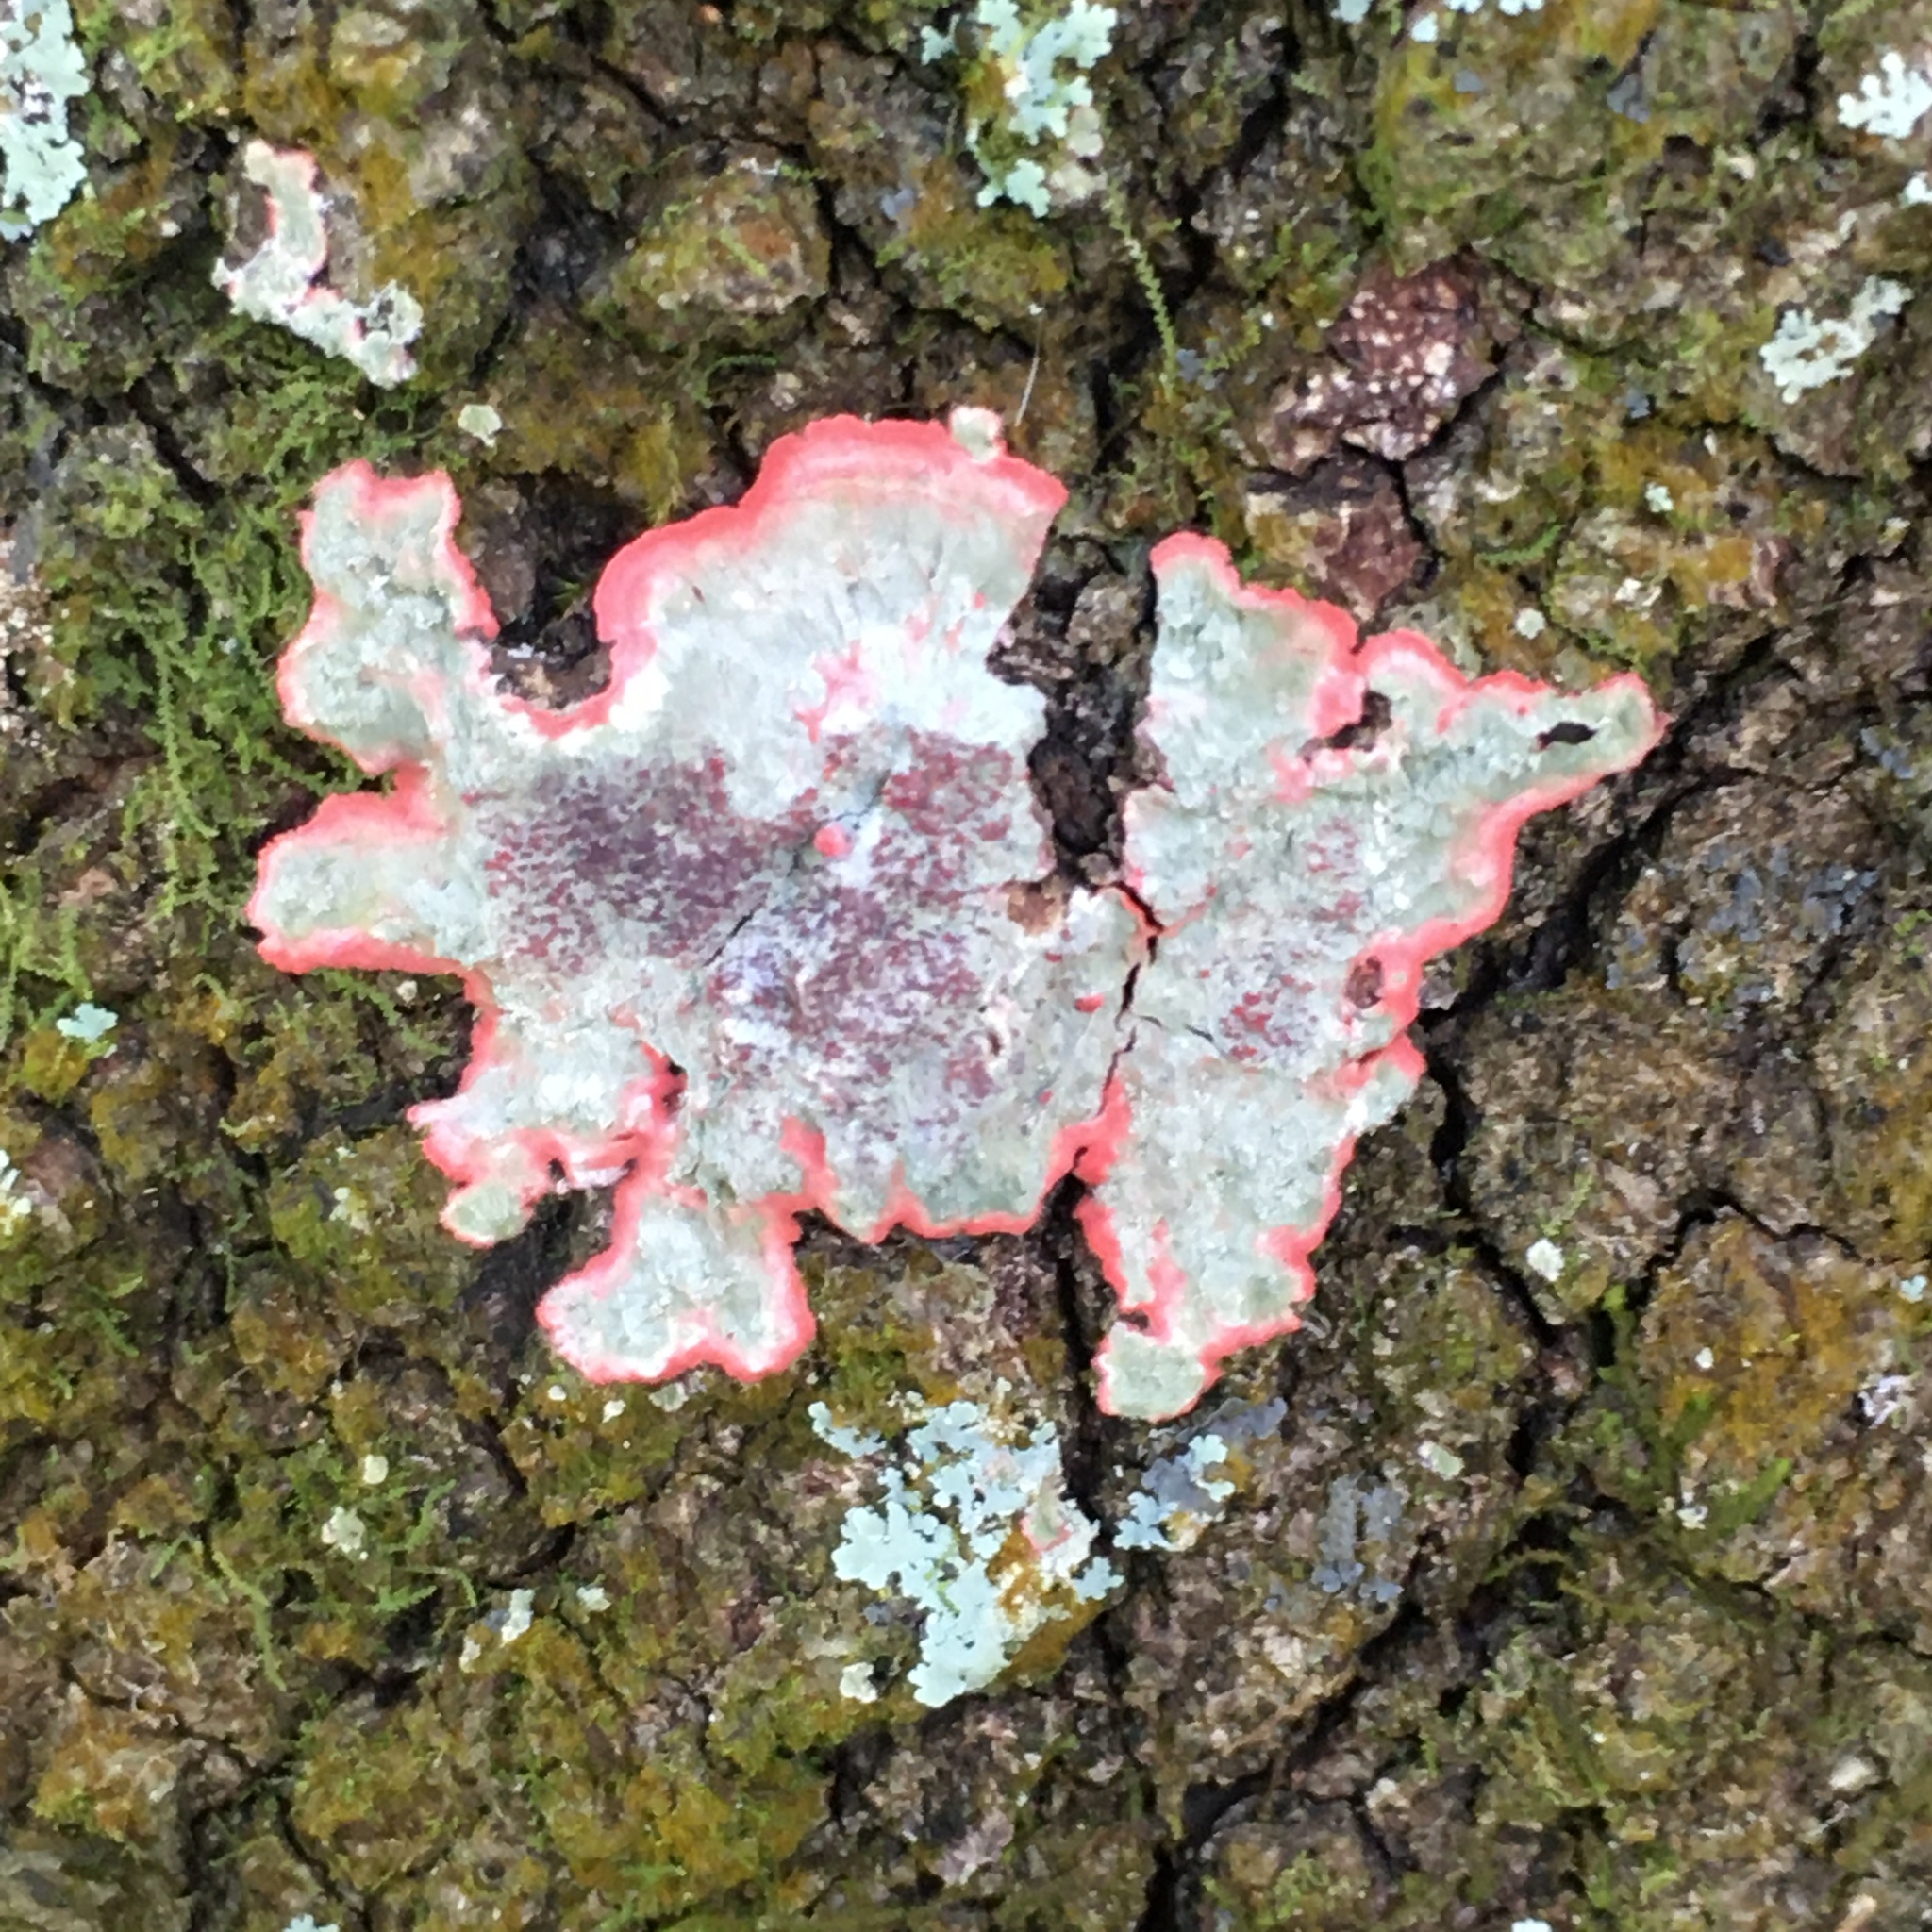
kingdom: Fungi
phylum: Ascomycota
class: Arthoniomycetes
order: Arthoniales
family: Arthoniaceae
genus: Herpothallon
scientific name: Herpothallon rubrocinctum
